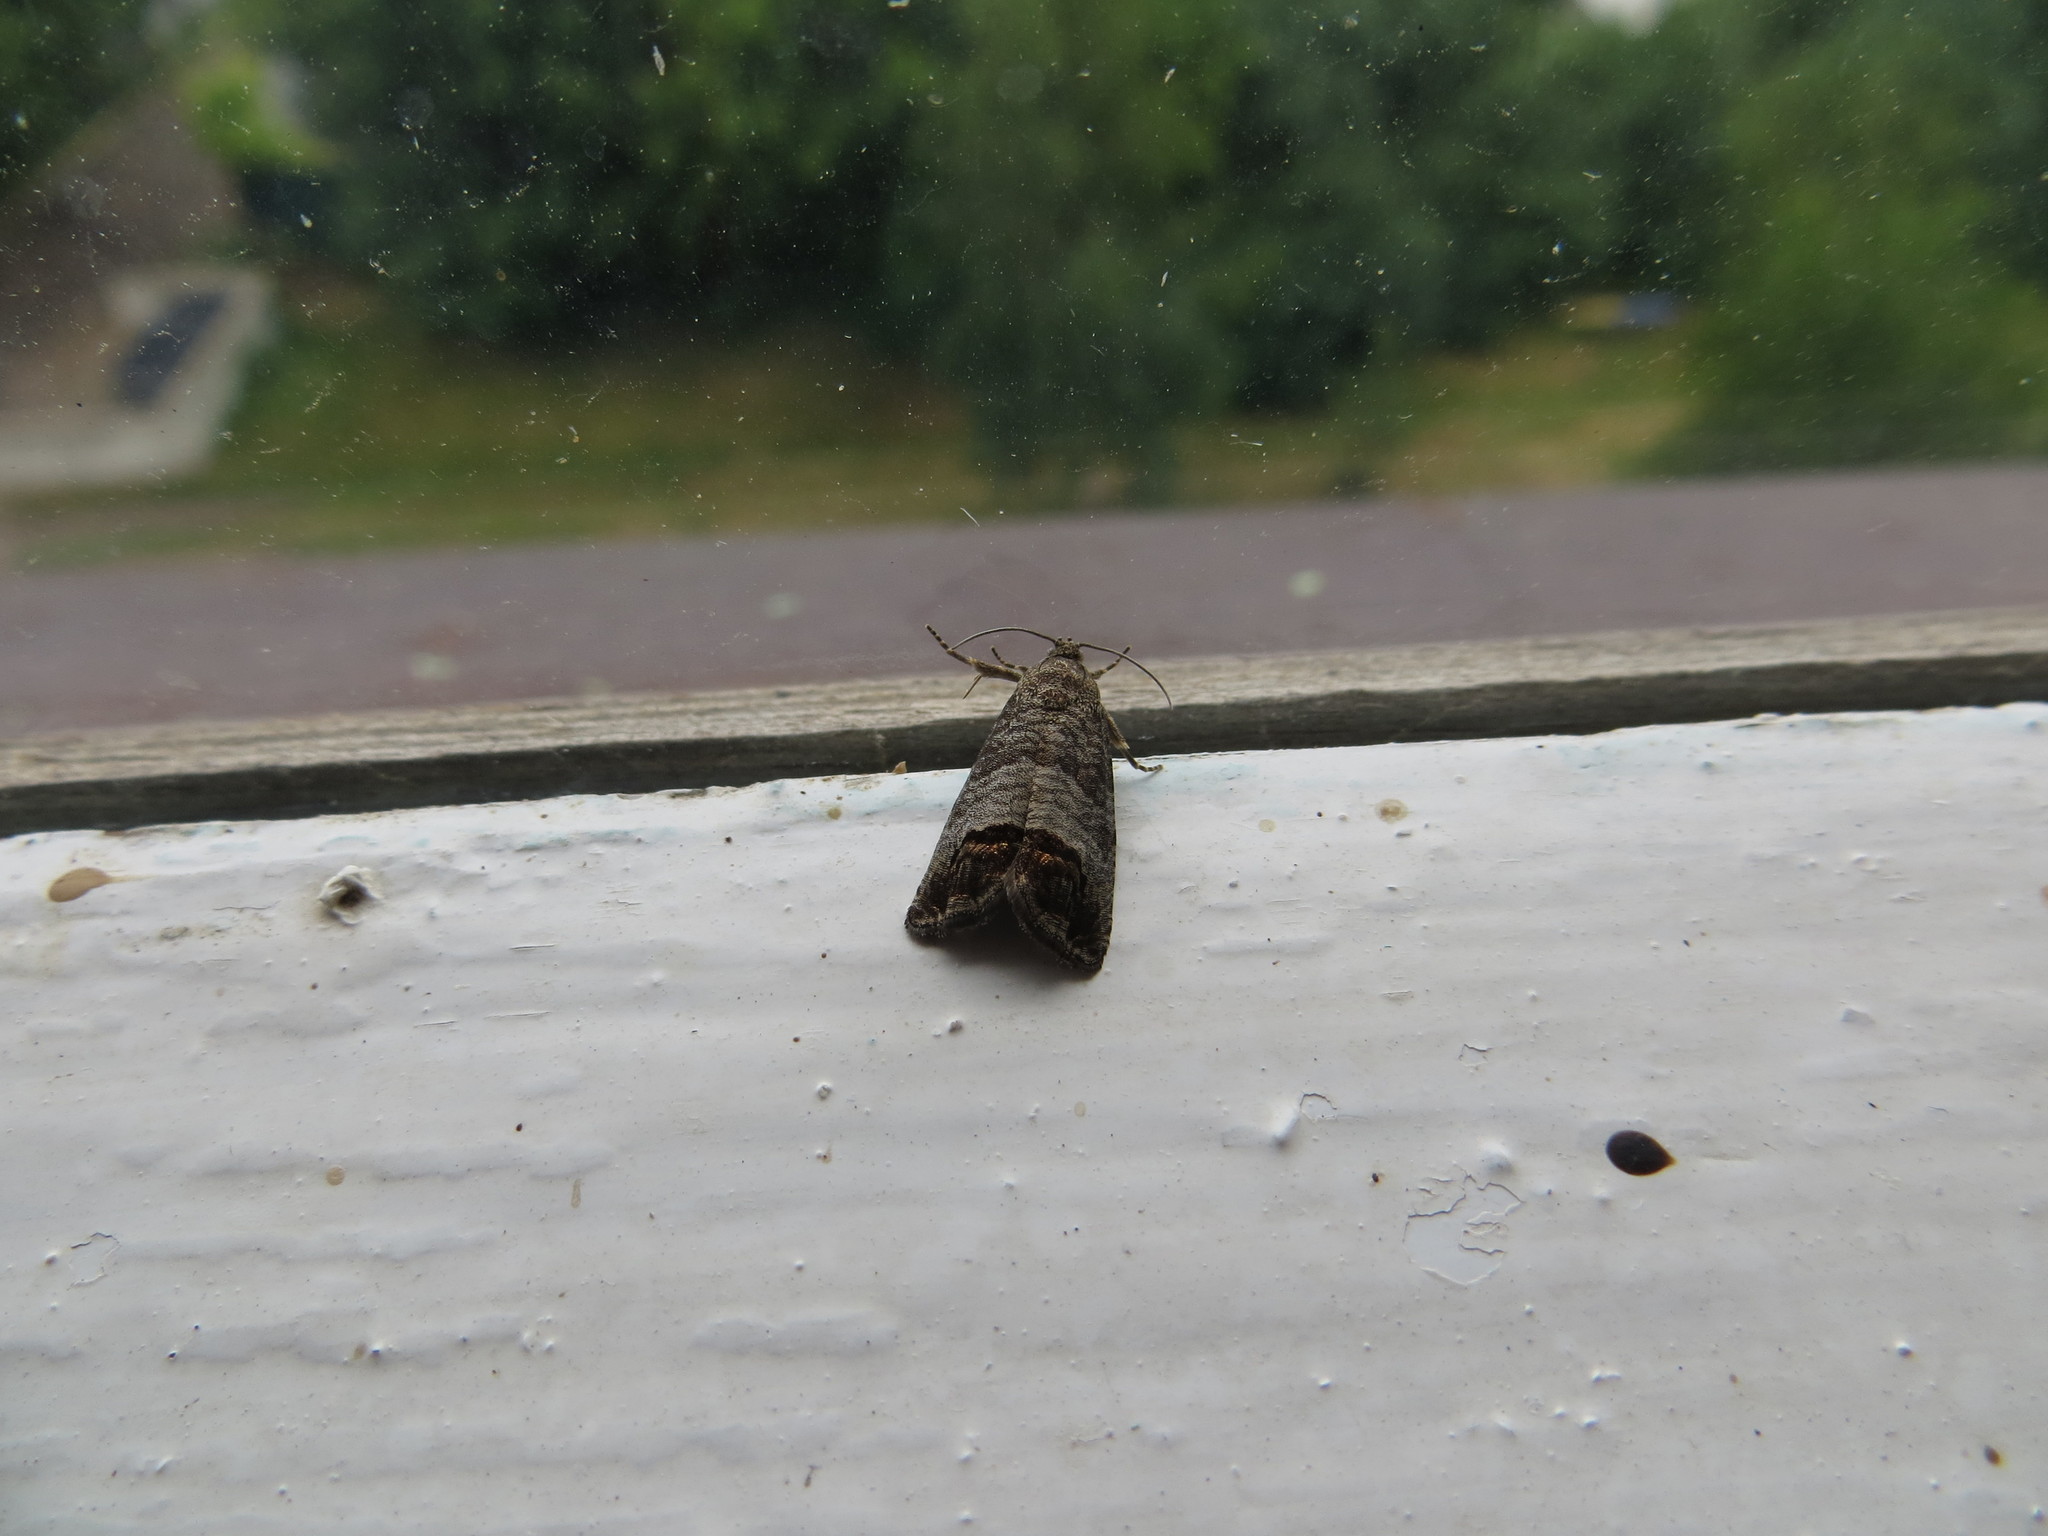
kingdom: Animalia
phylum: Arthropoda
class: Insecta
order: Lepidoptera
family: Tortricidae
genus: Cydia
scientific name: Cydia pomonella
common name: Codling moth
